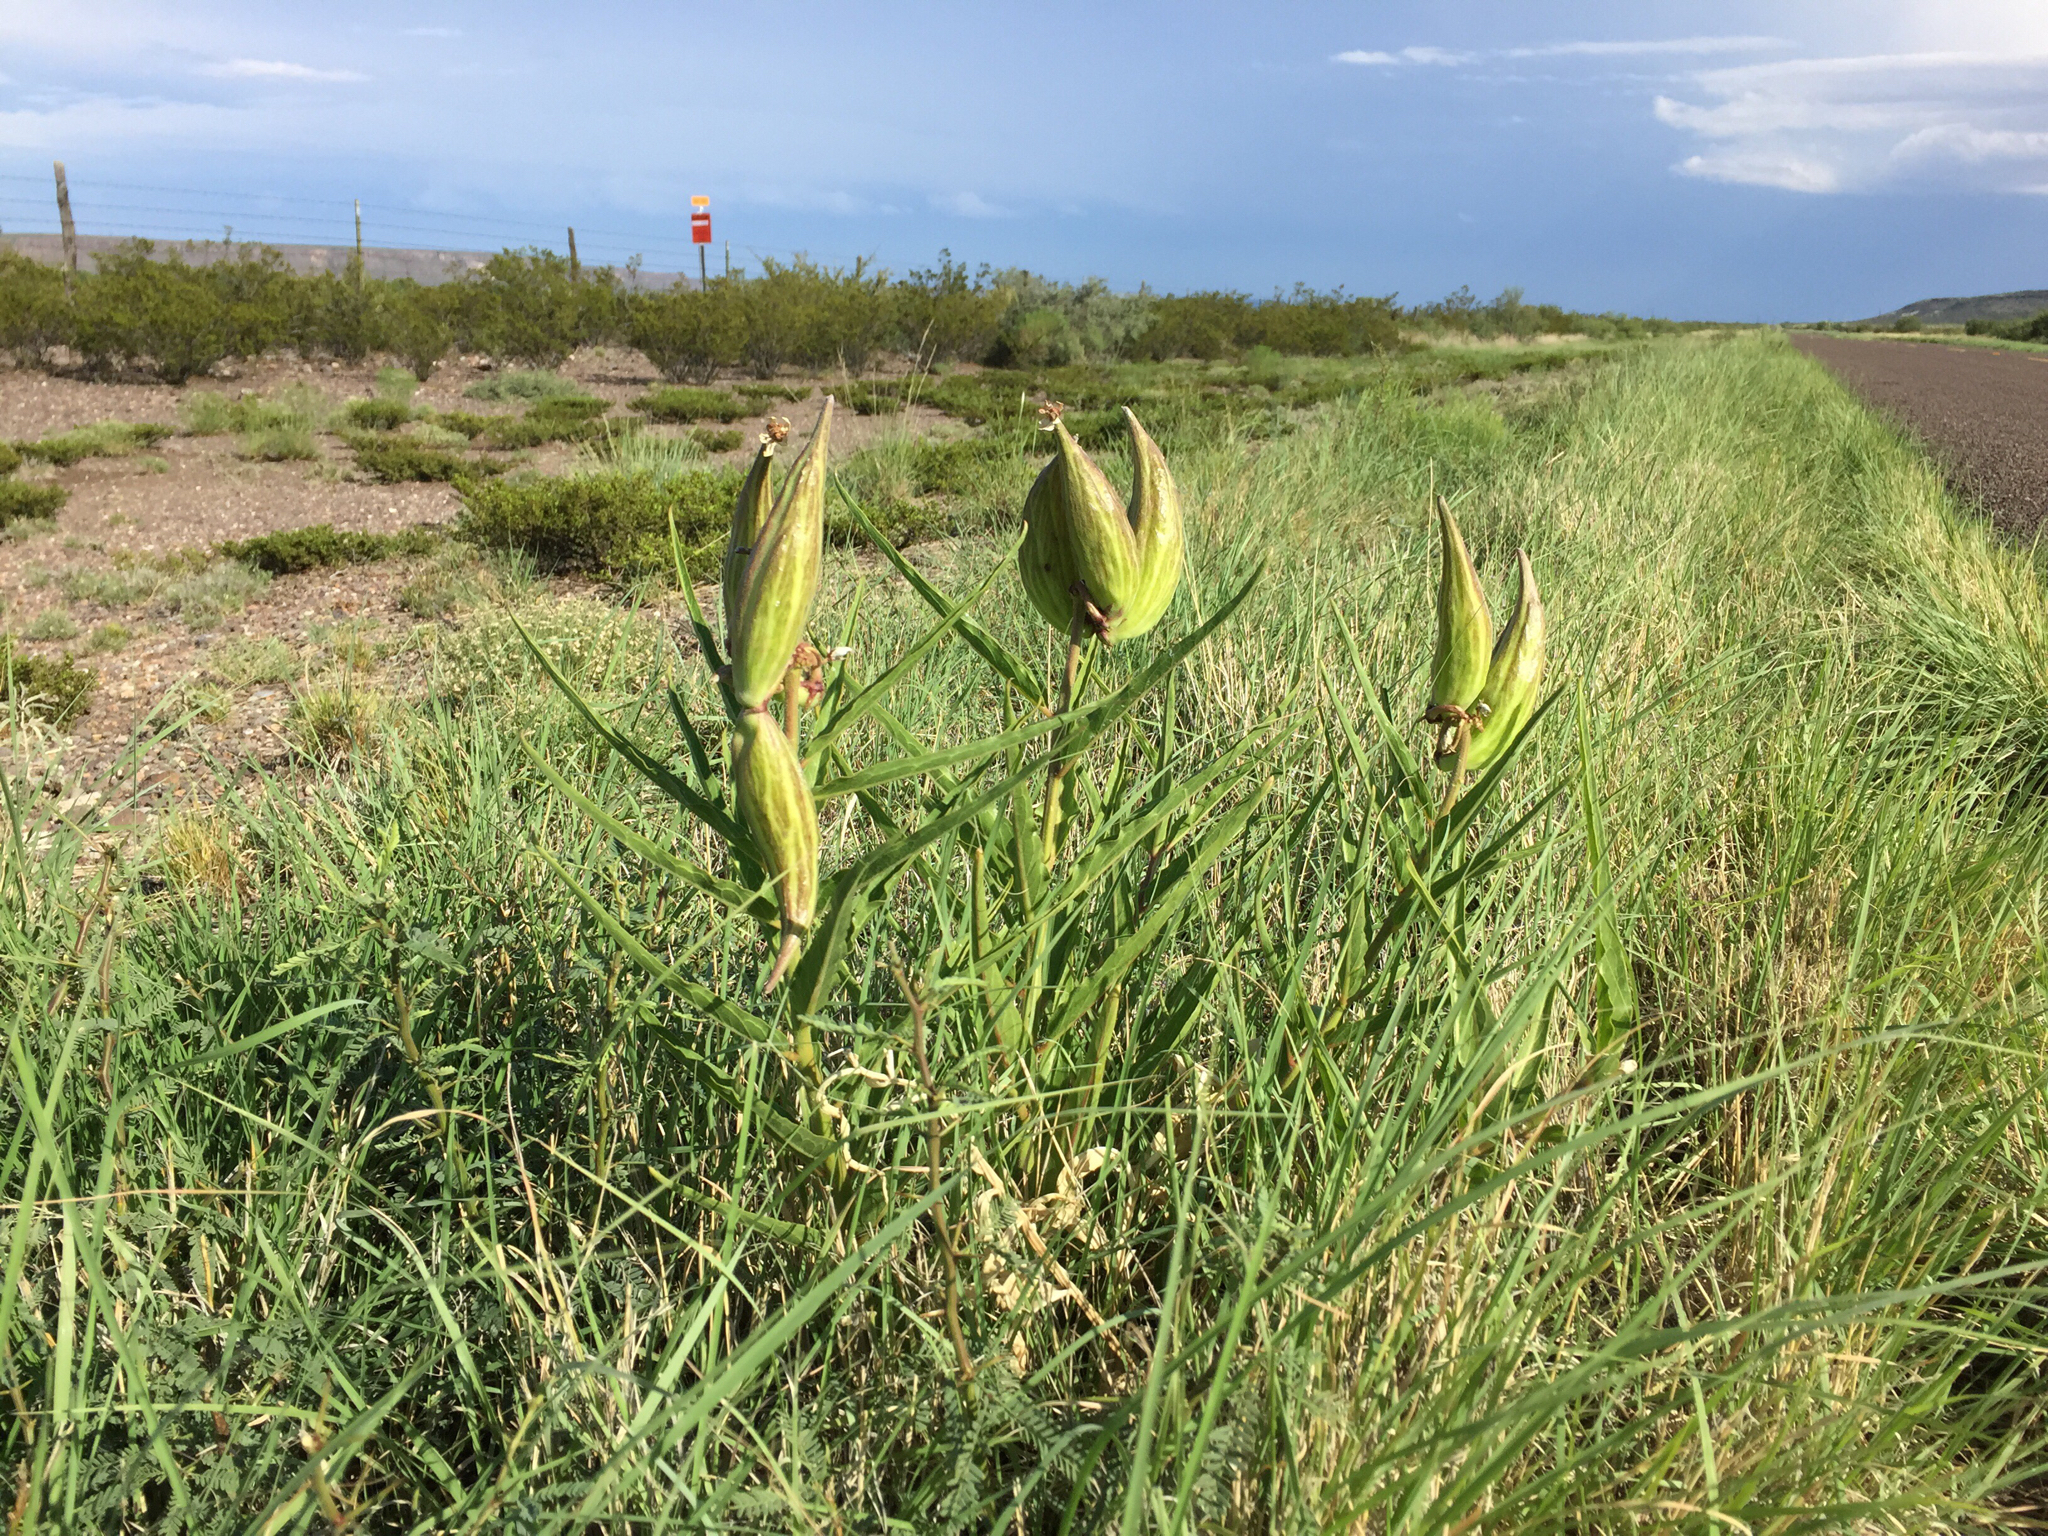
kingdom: Plantae
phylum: Tracheophyta
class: Magnoliopsida
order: Gentianales
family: Apocynaceae
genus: Asclepias
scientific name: Asclepias asperula
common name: Antelope horns
